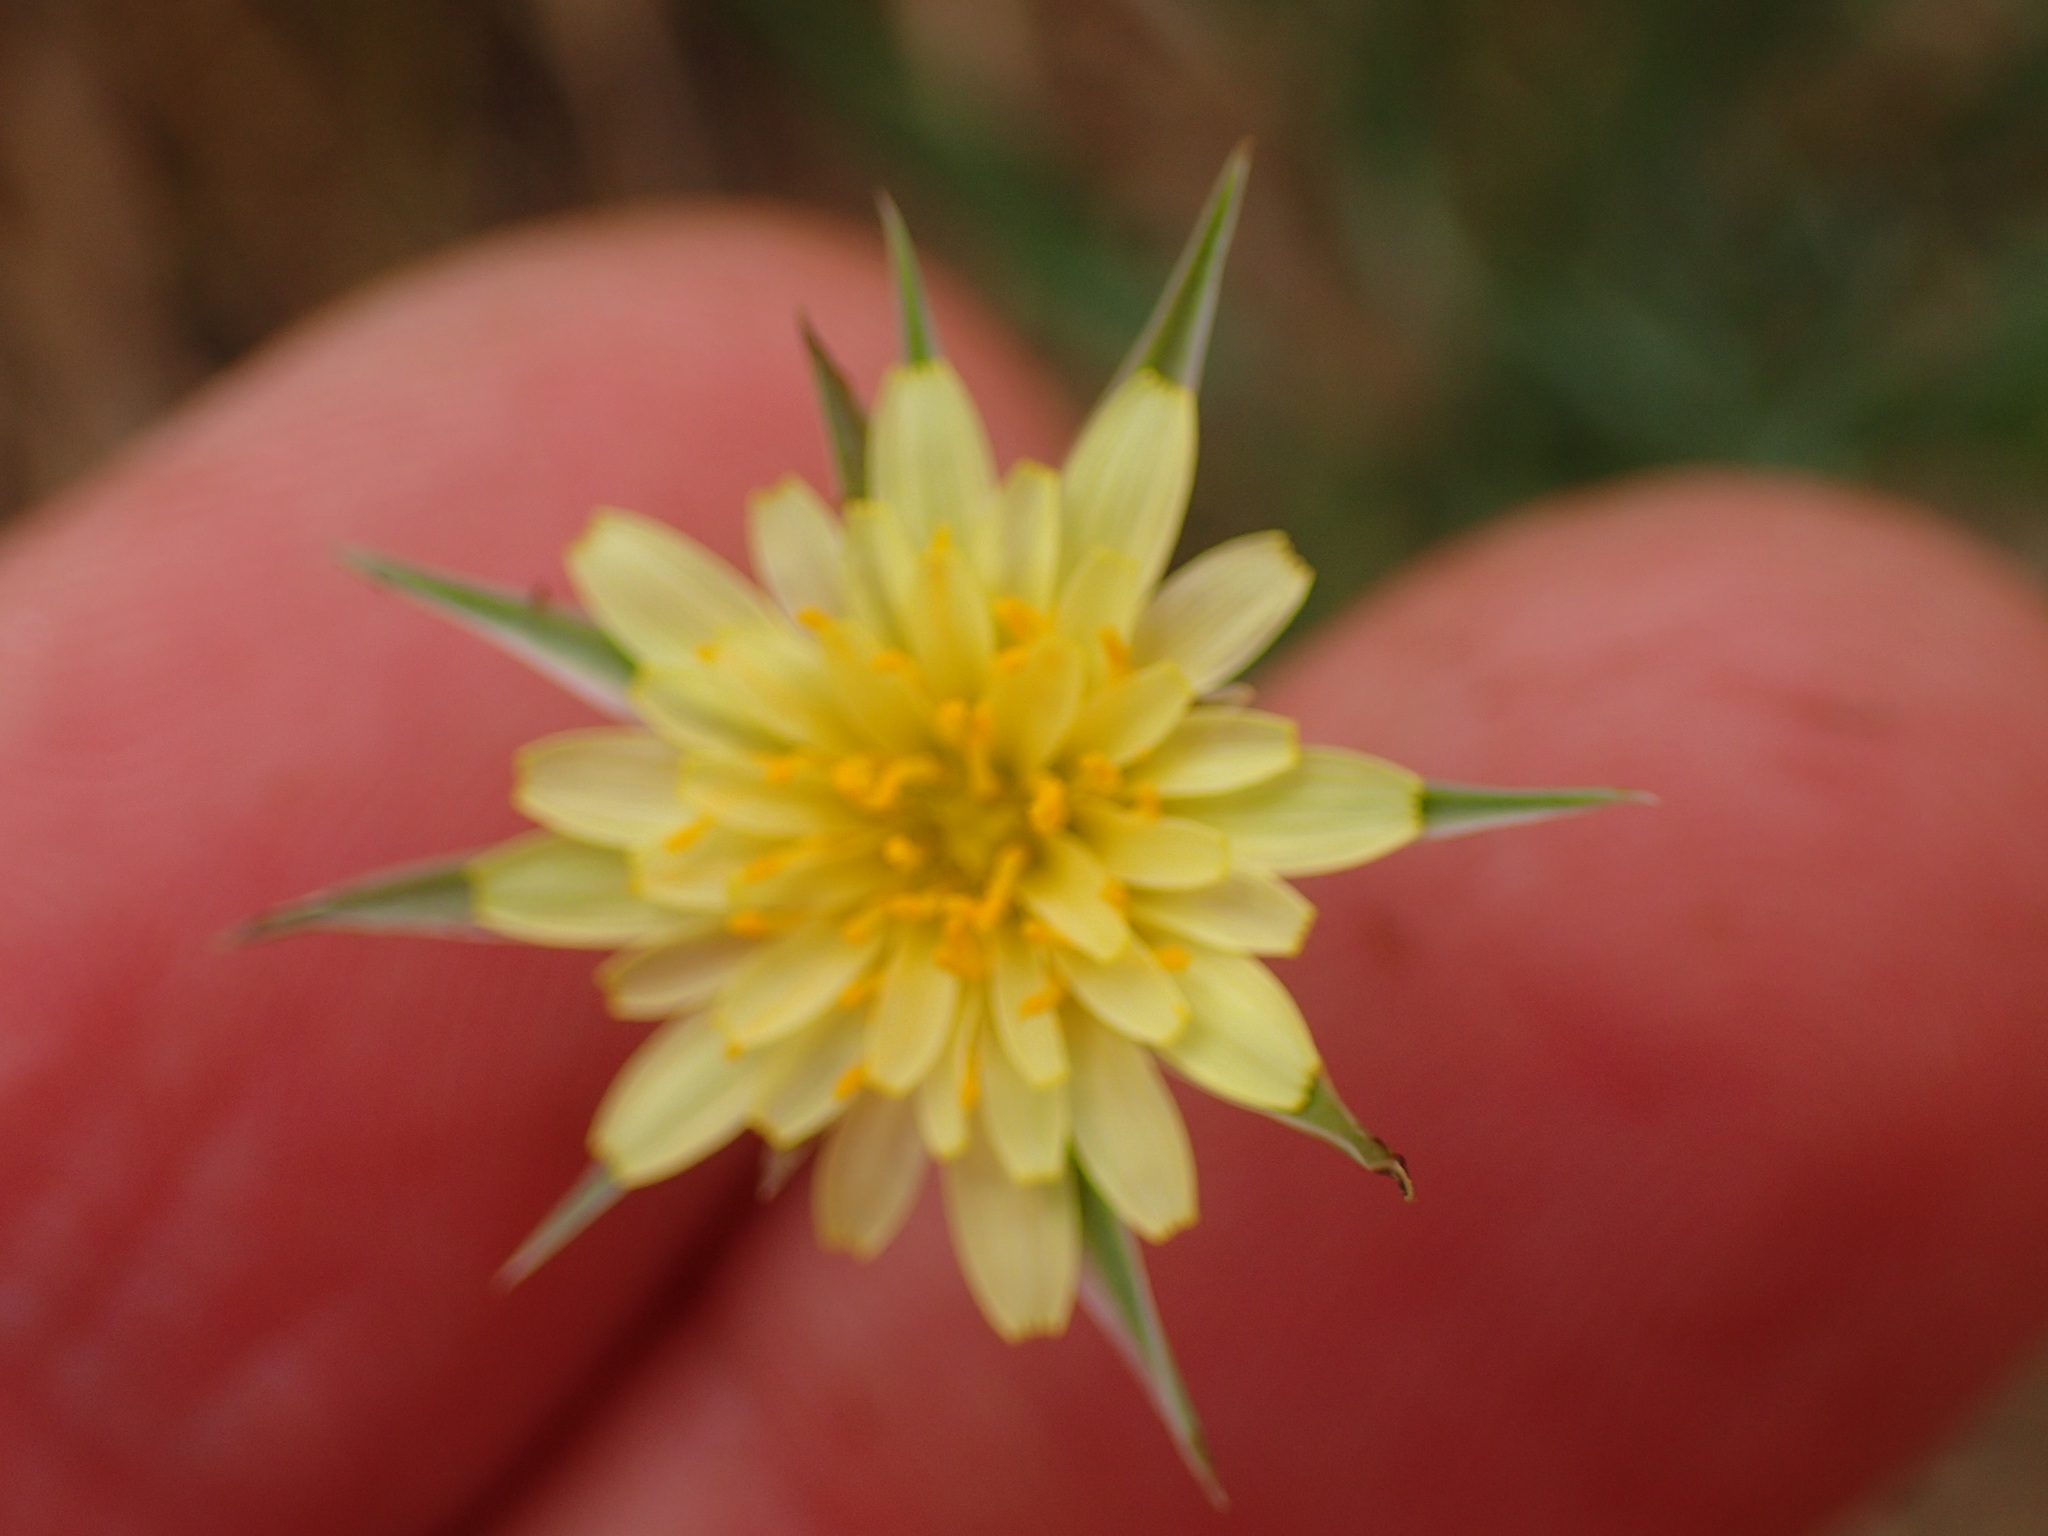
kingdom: Plantae
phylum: Tracheophyta
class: Magnoliopsida
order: Asterales
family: Asteraceae
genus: Microseris
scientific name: Microseris lindleyi
